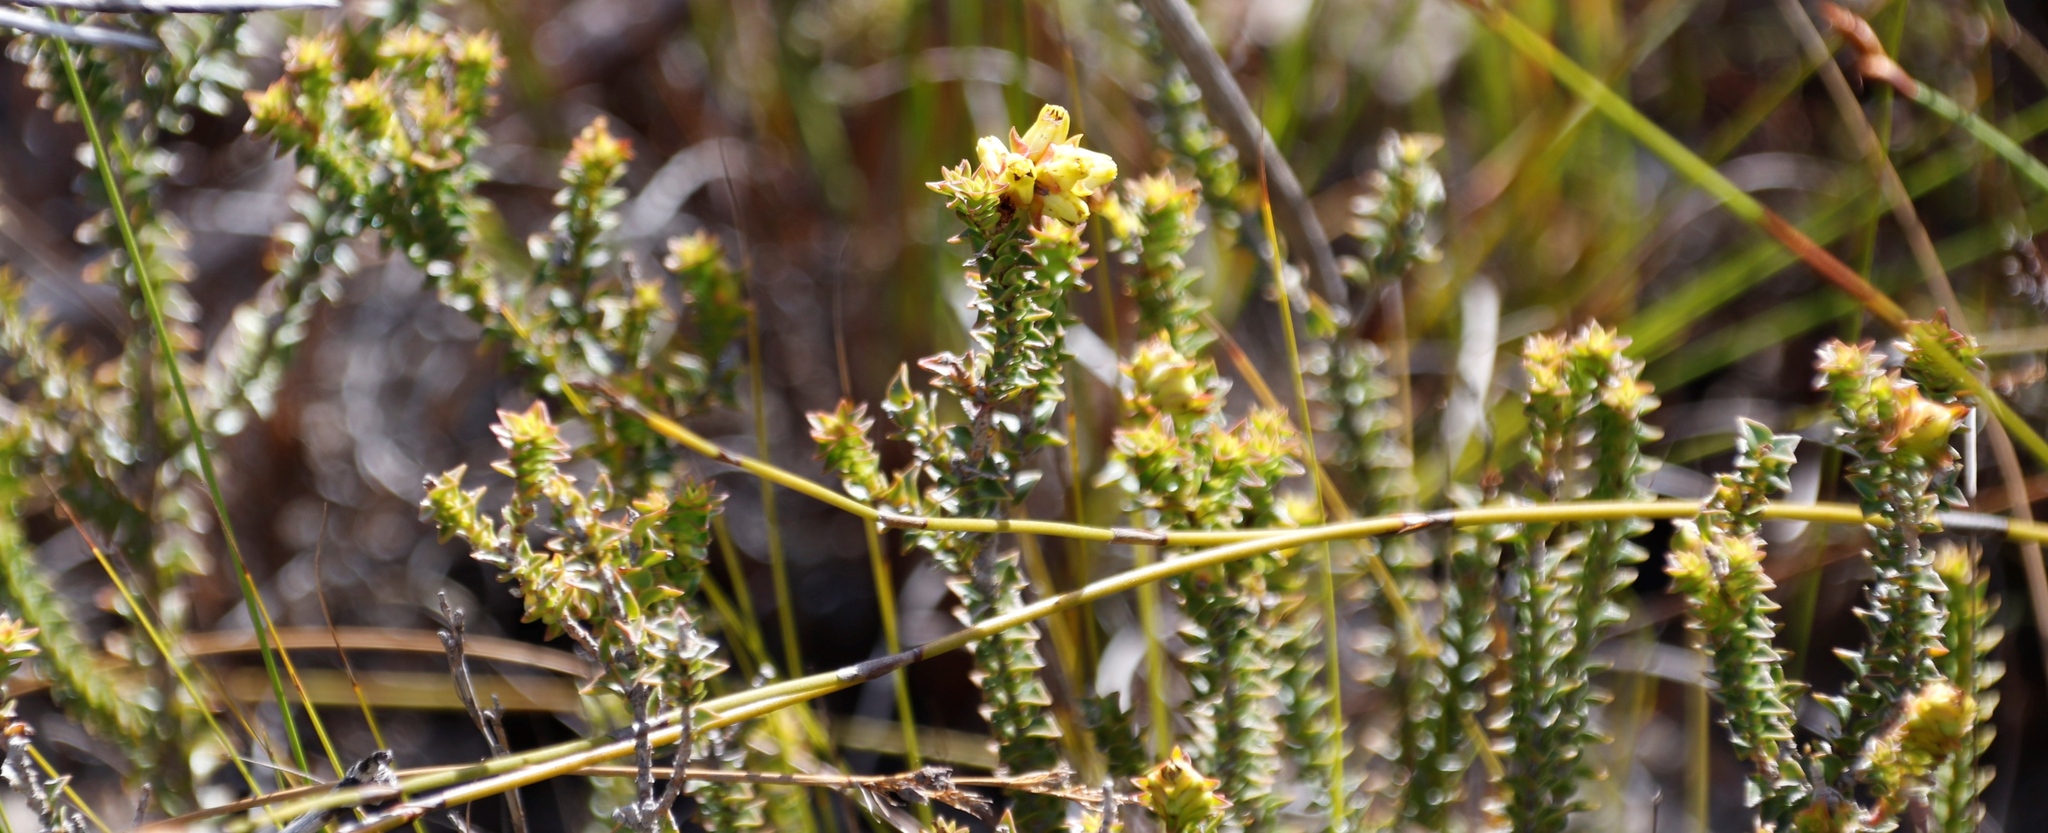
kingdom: Plantae
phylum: Tracheophyta
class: Magnoliopsida
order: Myrtales
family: Penaeaceae
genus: Penaea
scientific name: Penaea mucronata
